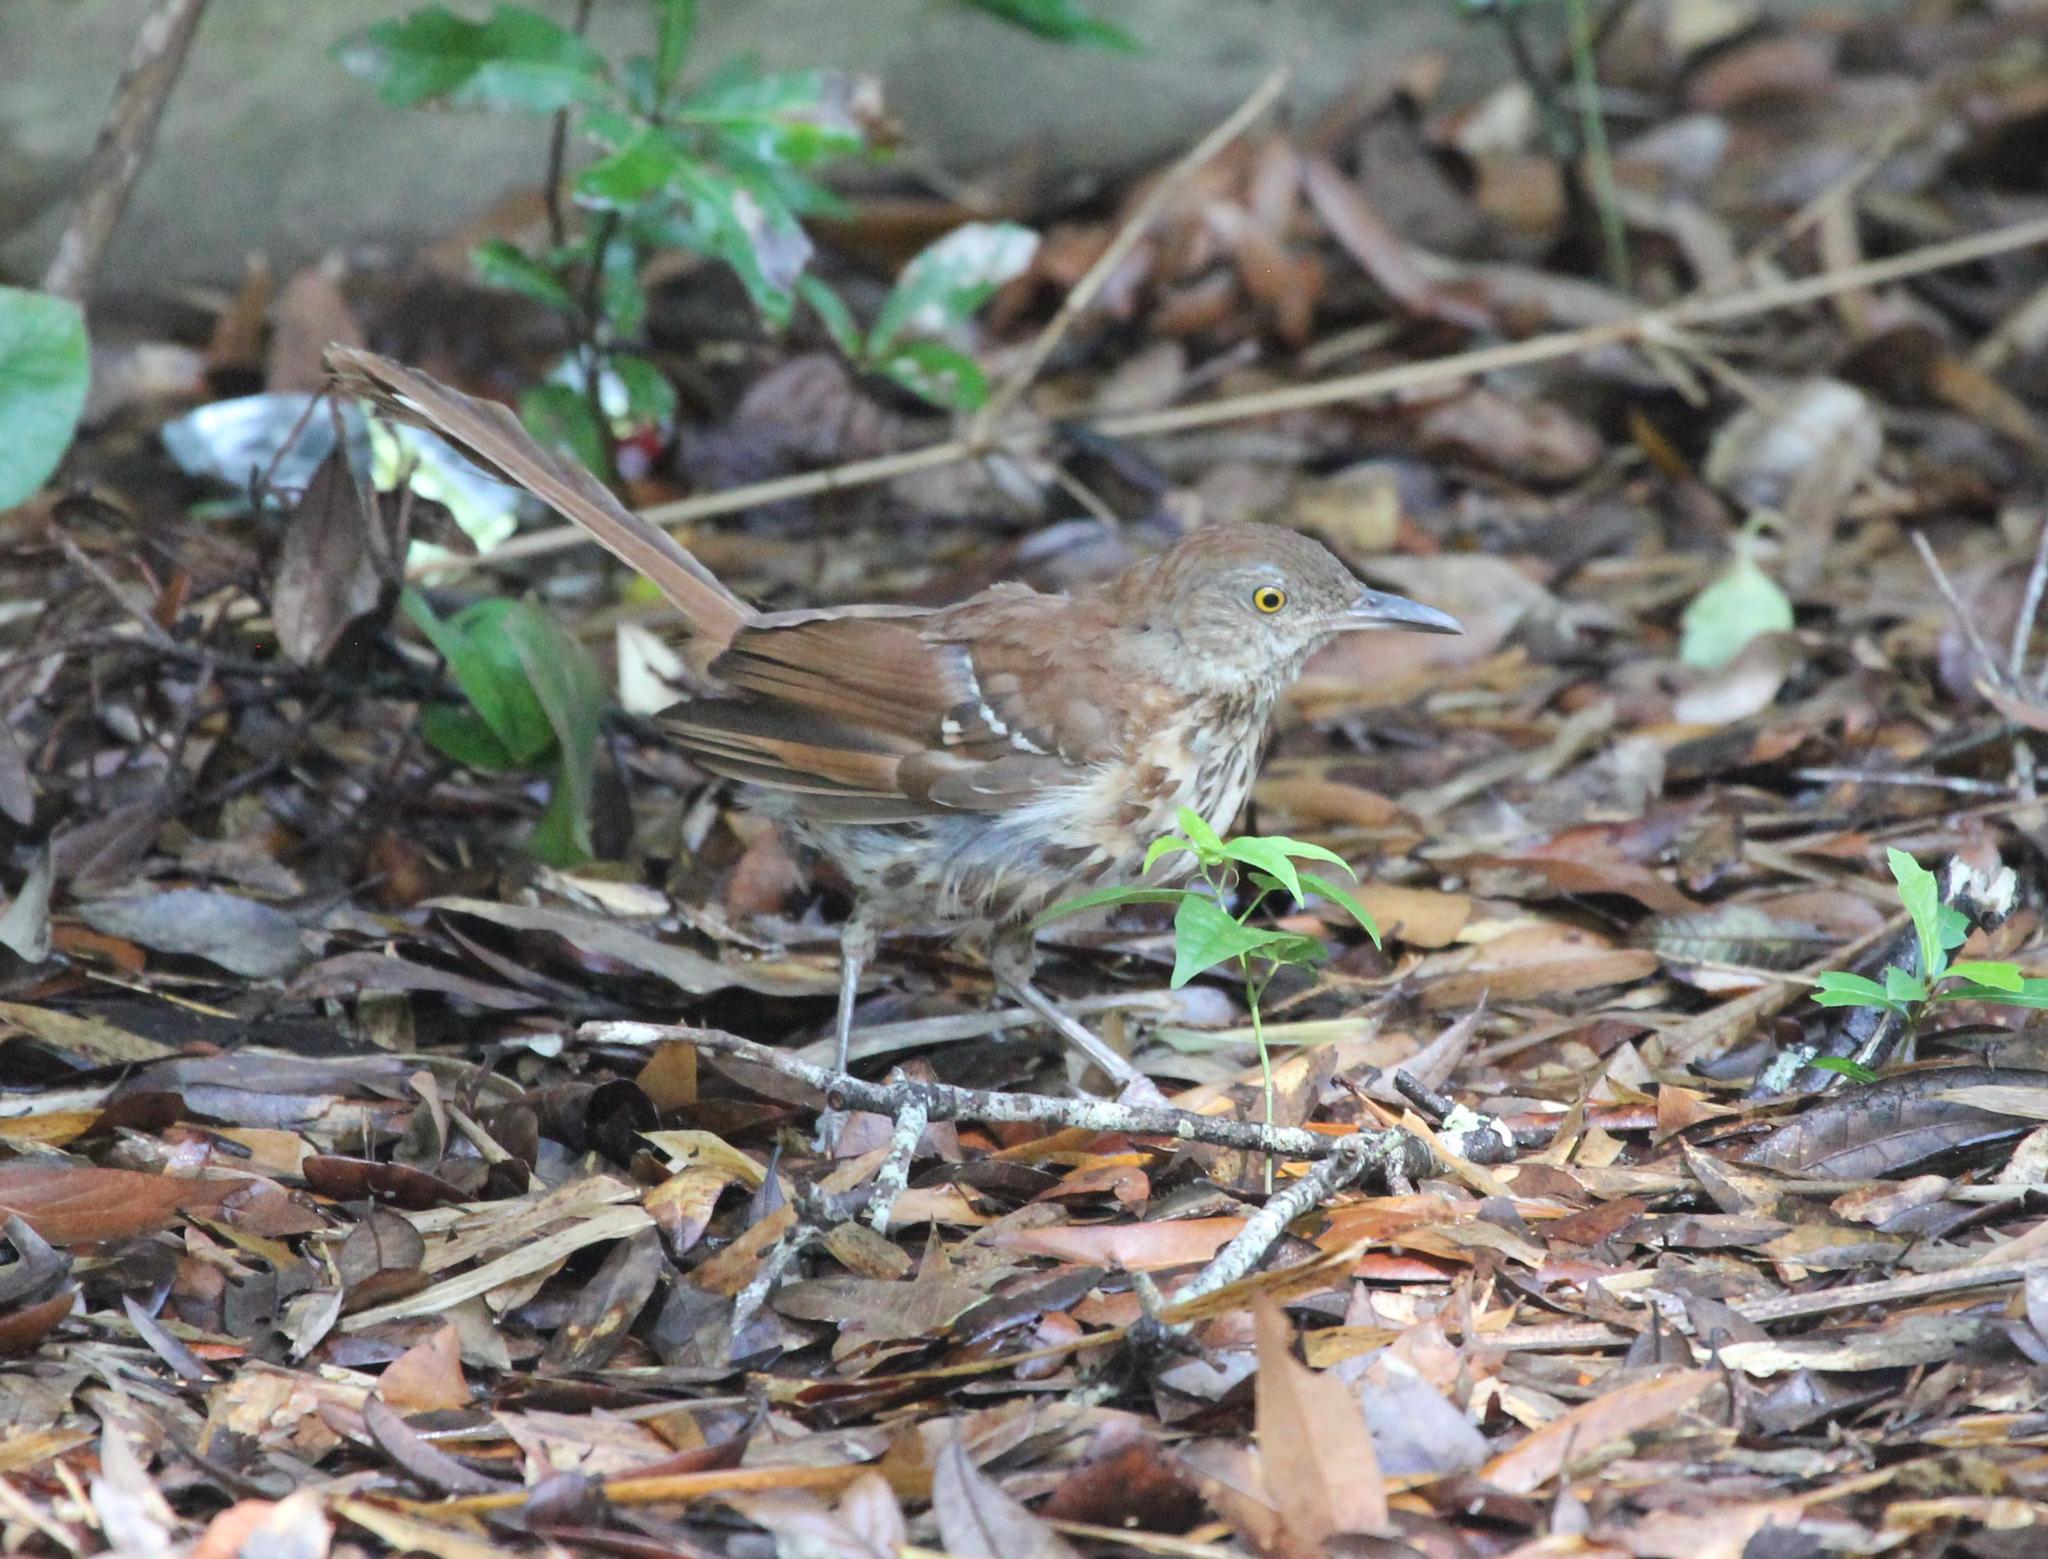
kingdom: Animalia
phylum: Chordata
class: Aves
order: Passeriformes
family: Mimidae
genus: Toxostoma
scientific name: Toxostoma rufum
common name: Brown thrasher
